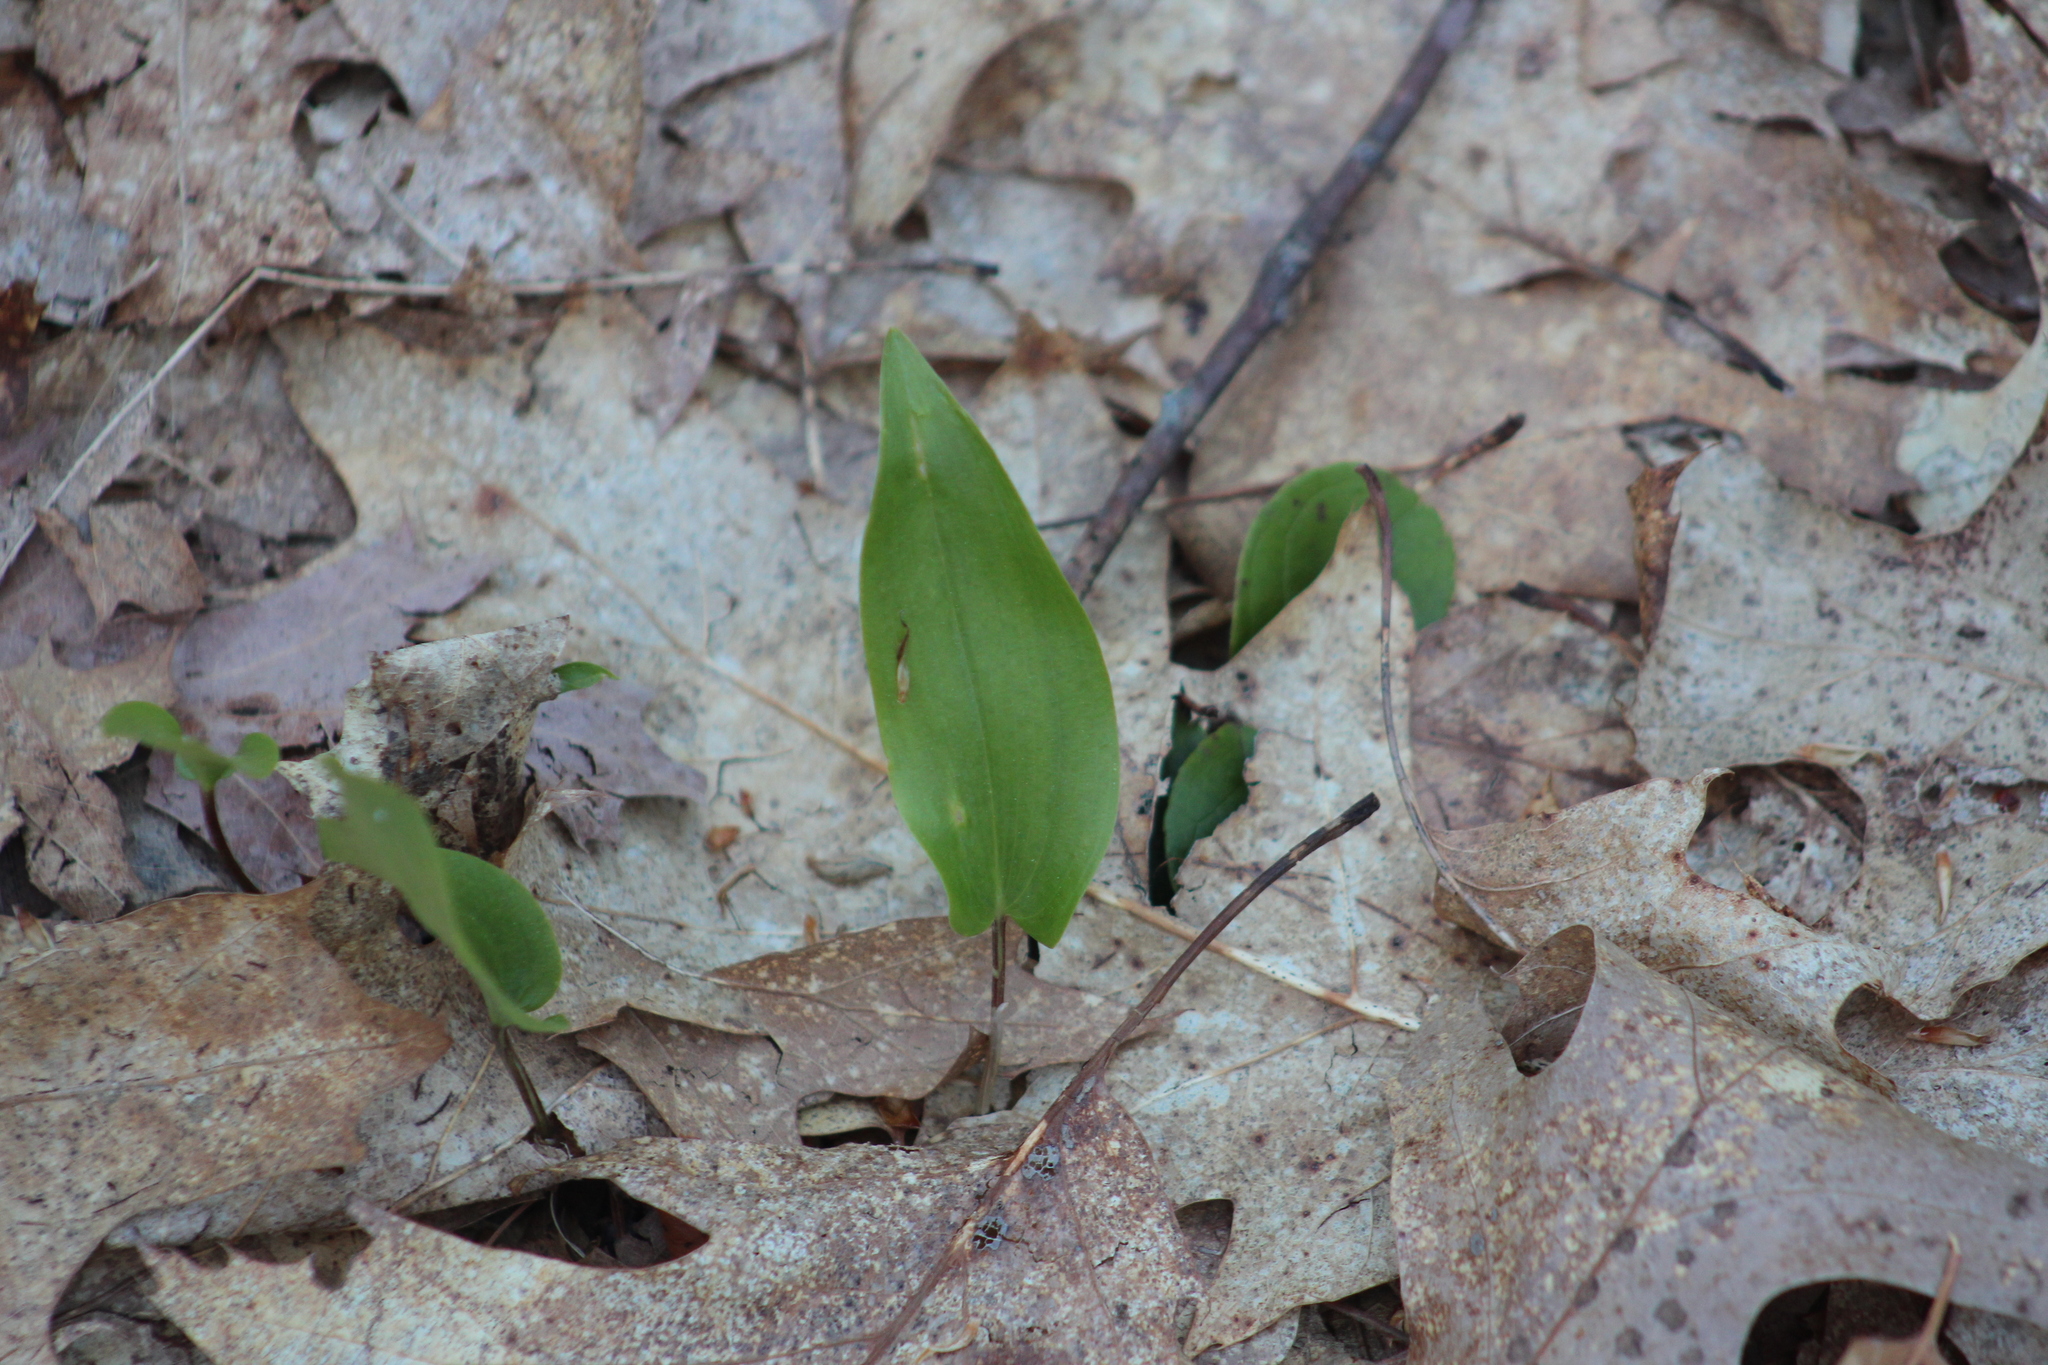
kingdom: Plantae
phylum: Tracheophyta
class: Liliopsida
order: Asparagales
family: Asparagaceae
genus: Maianthemum
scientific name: Maianthemum canadense
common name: False lily-of-the-valley
